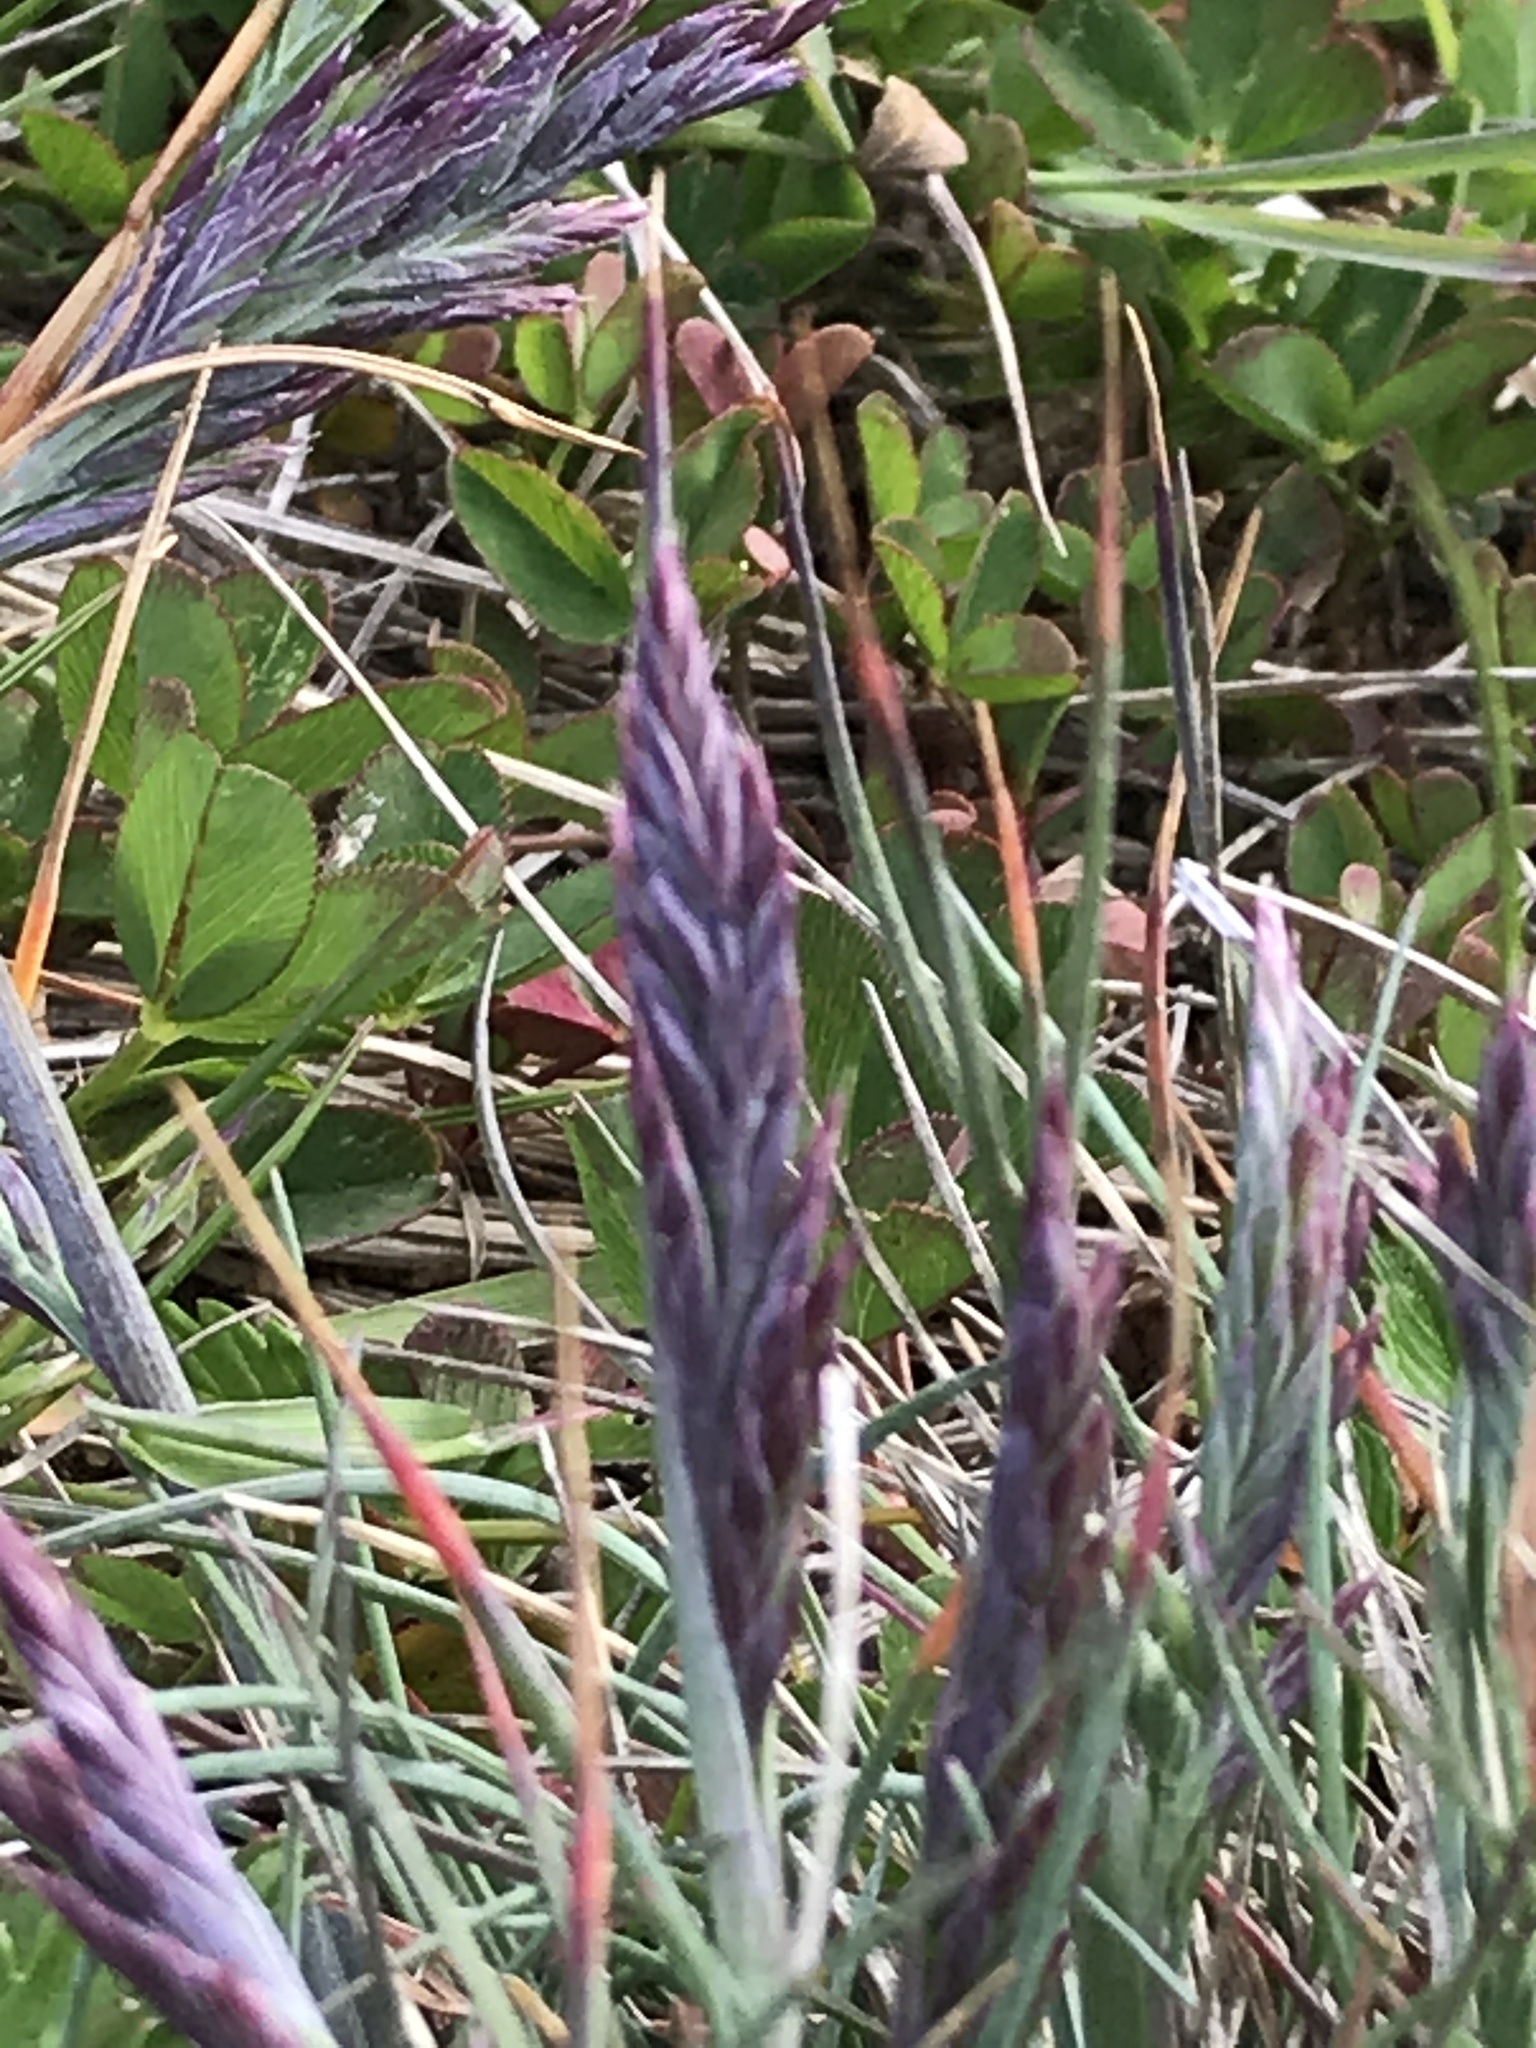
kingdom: Plantae
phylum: Tracheophyta
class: Liliopsida
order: Poales
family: Poaceae
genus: Festuca
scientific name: Festuca rubra
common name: Red fescue
